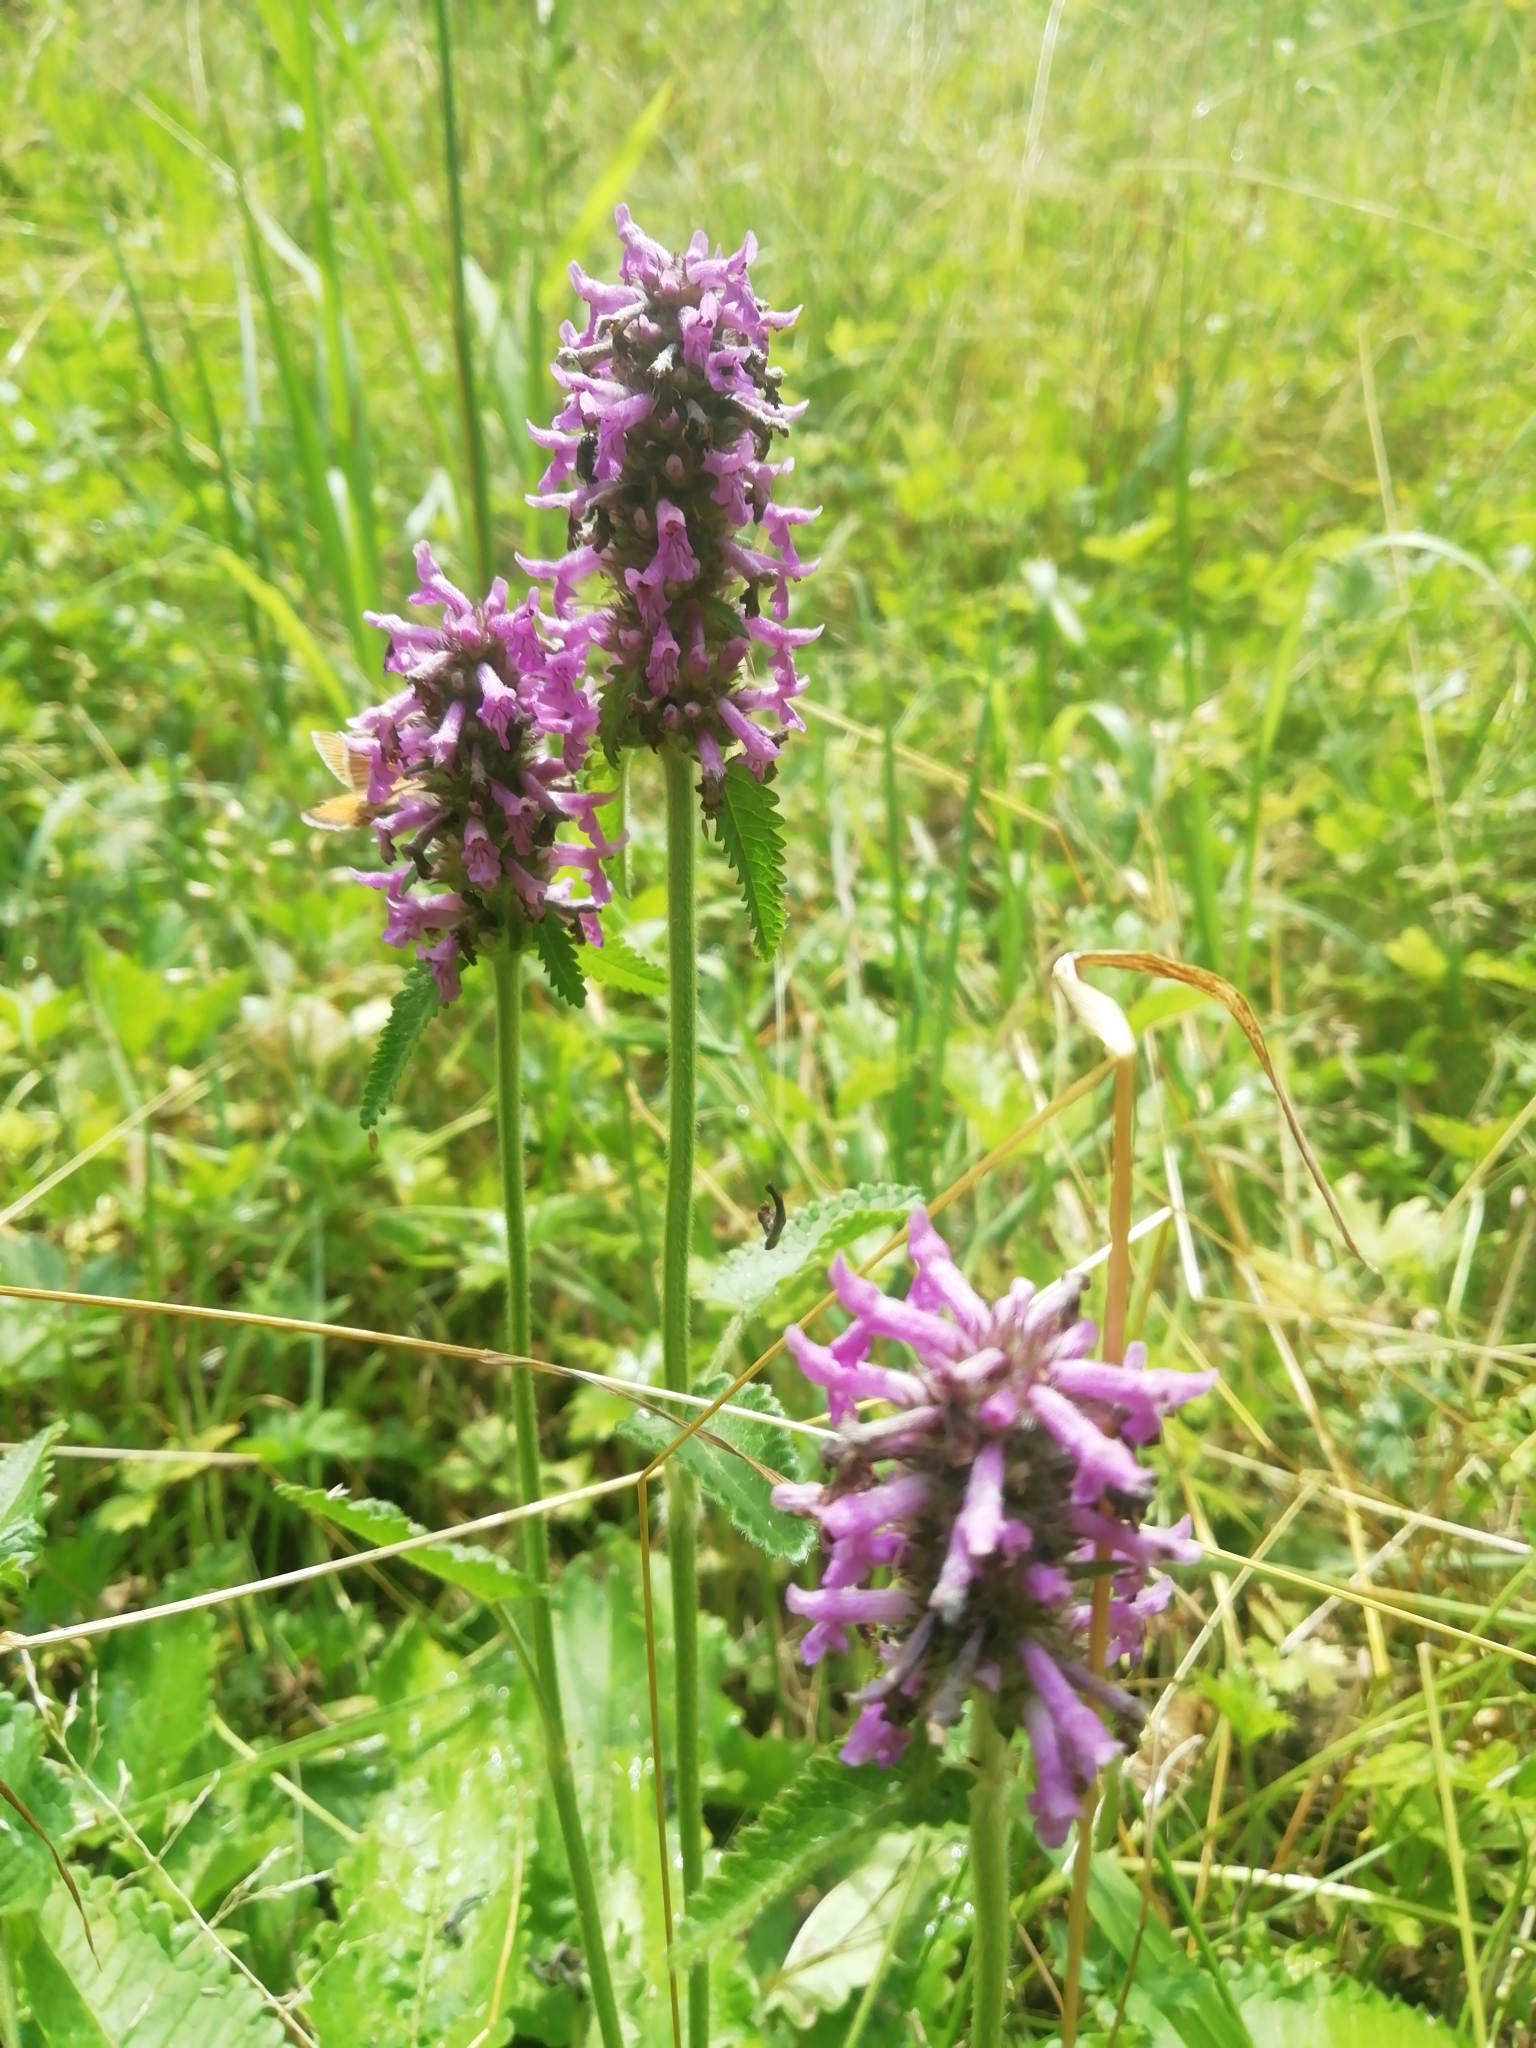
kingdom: Plantae
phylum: Tracheophyta
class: Magnoliopsida
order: Lamiales
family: Lamiaceae
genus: Betonica
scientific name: Betonica officinalis
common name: Bishop's-wort
